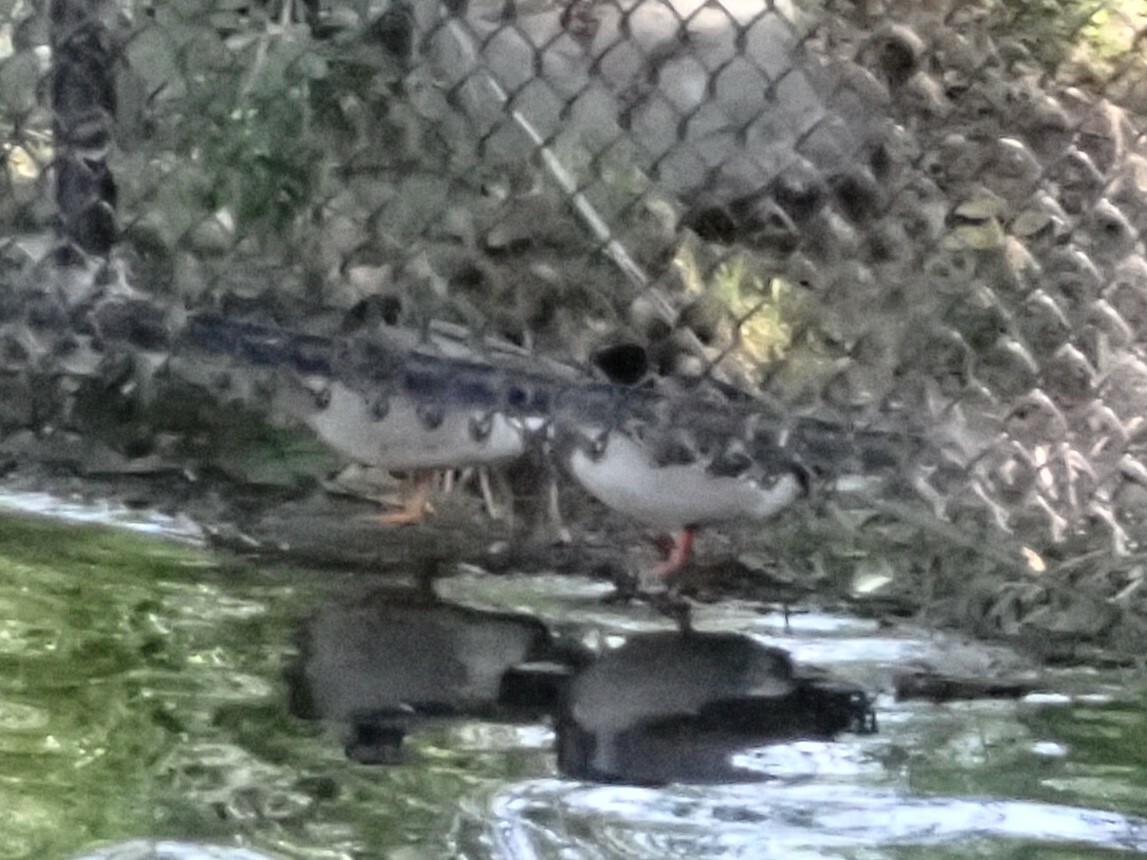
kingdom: Animalia
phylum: Chordata
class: Aves
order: Anseriformes
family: Anatidae
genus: Anas
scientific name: Anas platyrhynchos
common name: Mallard
